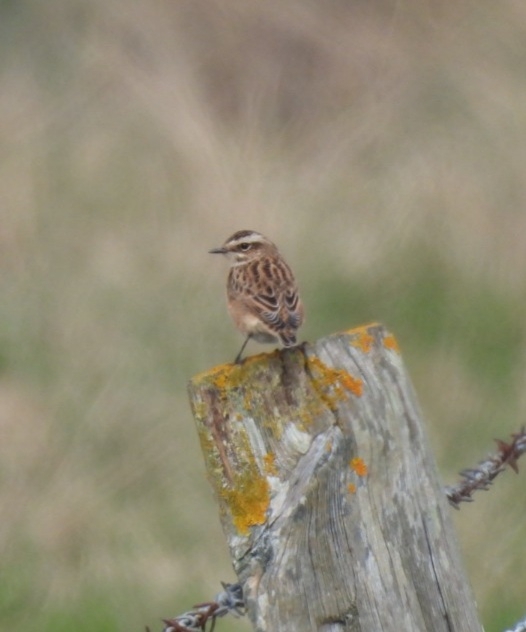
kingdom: Animalia
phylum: Chordata
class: Aves
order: Passeriformes
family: Muscicapidae
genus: Saxicola
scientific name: Saxicola rubetra
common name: Whinchat
